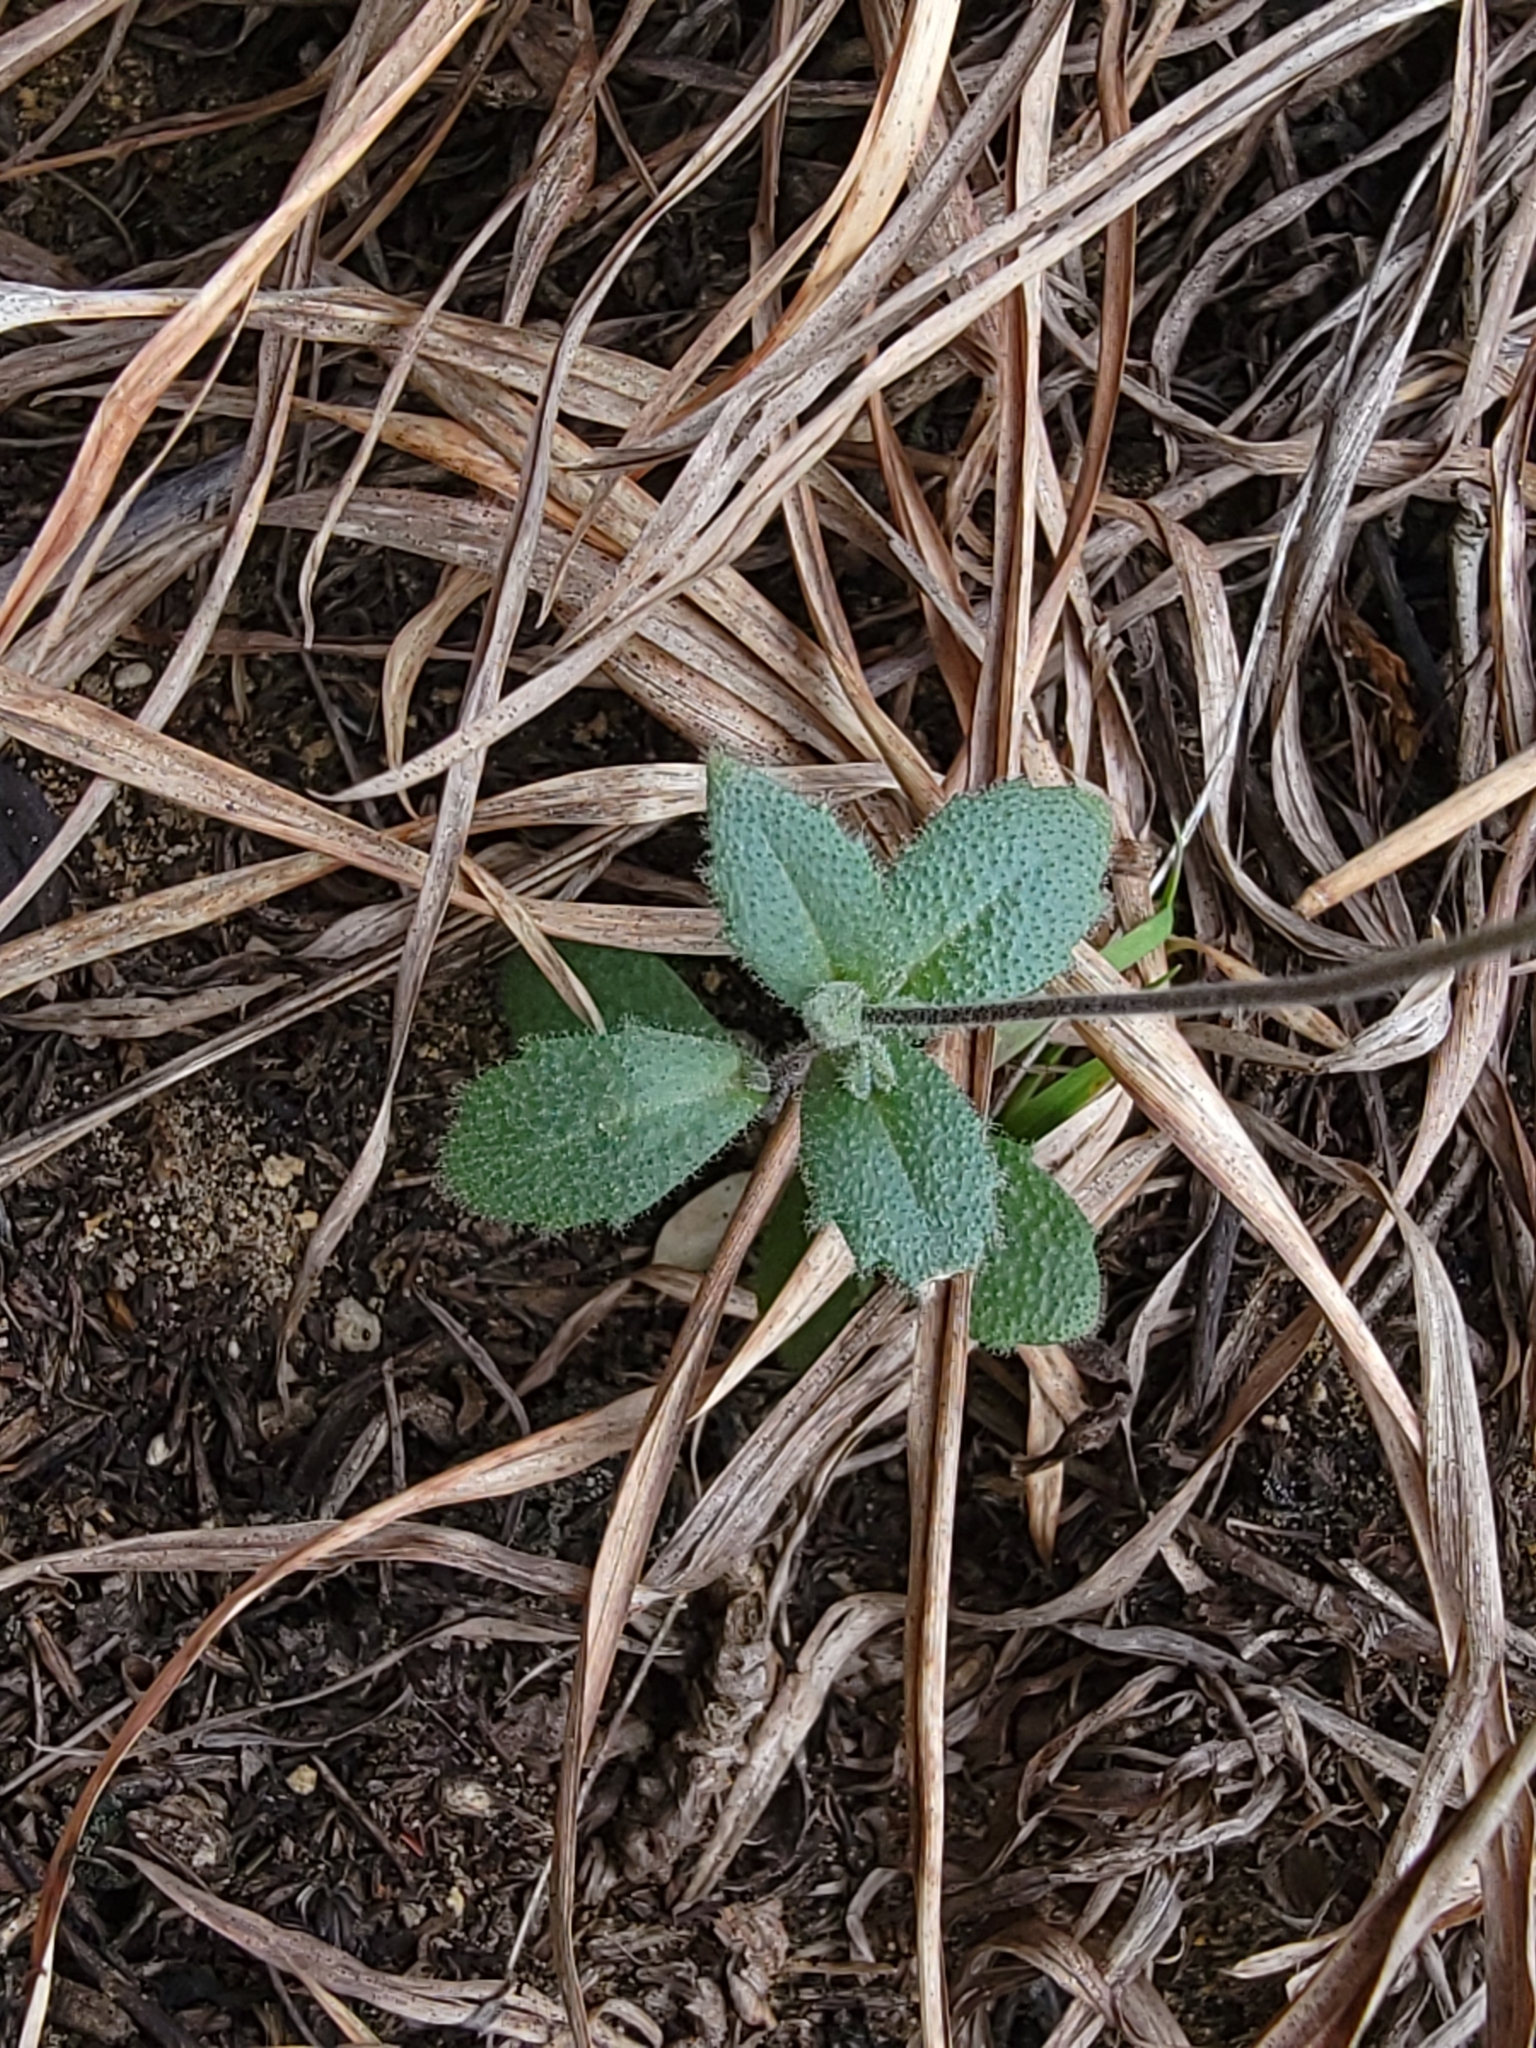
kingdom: Plantae
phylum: Tracheophyta
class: Magnoliopsida
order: Brassicales
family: Brassicaceae
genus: Tomostima
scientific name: Tomostima cuneifolia
